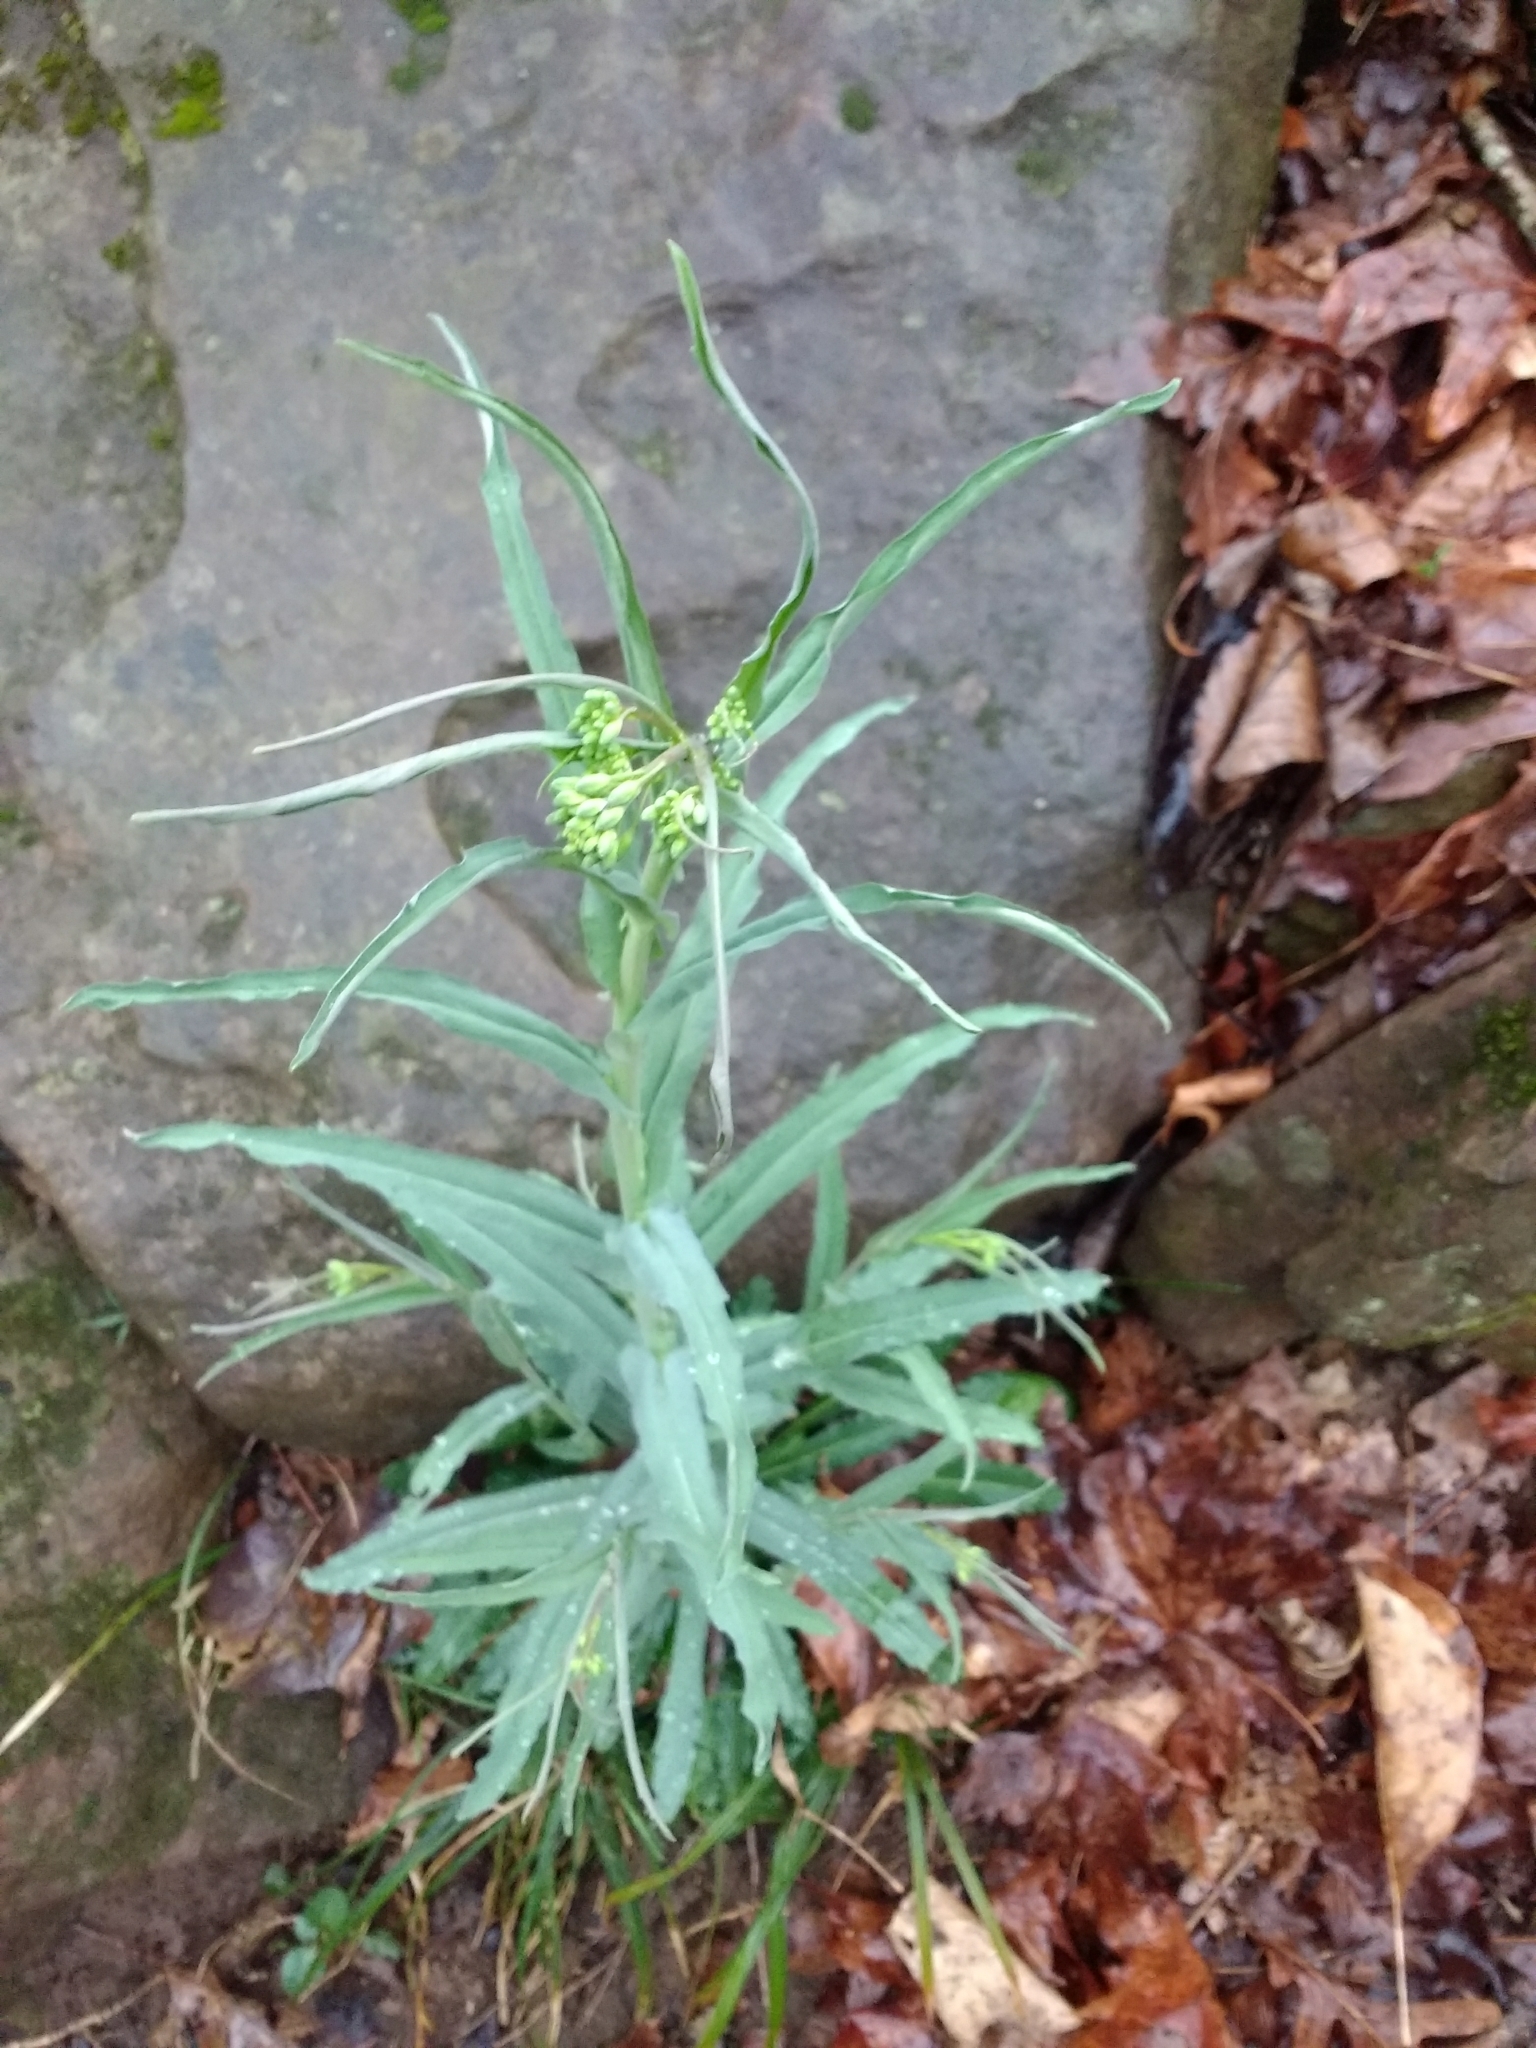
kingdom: Plantae
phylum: Tracheophyta
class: Magnoliopsida
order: Brassicales
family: Brassicaceae
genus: Borodinia
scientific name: Borodinia laevigata
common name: Smooth rockcress
